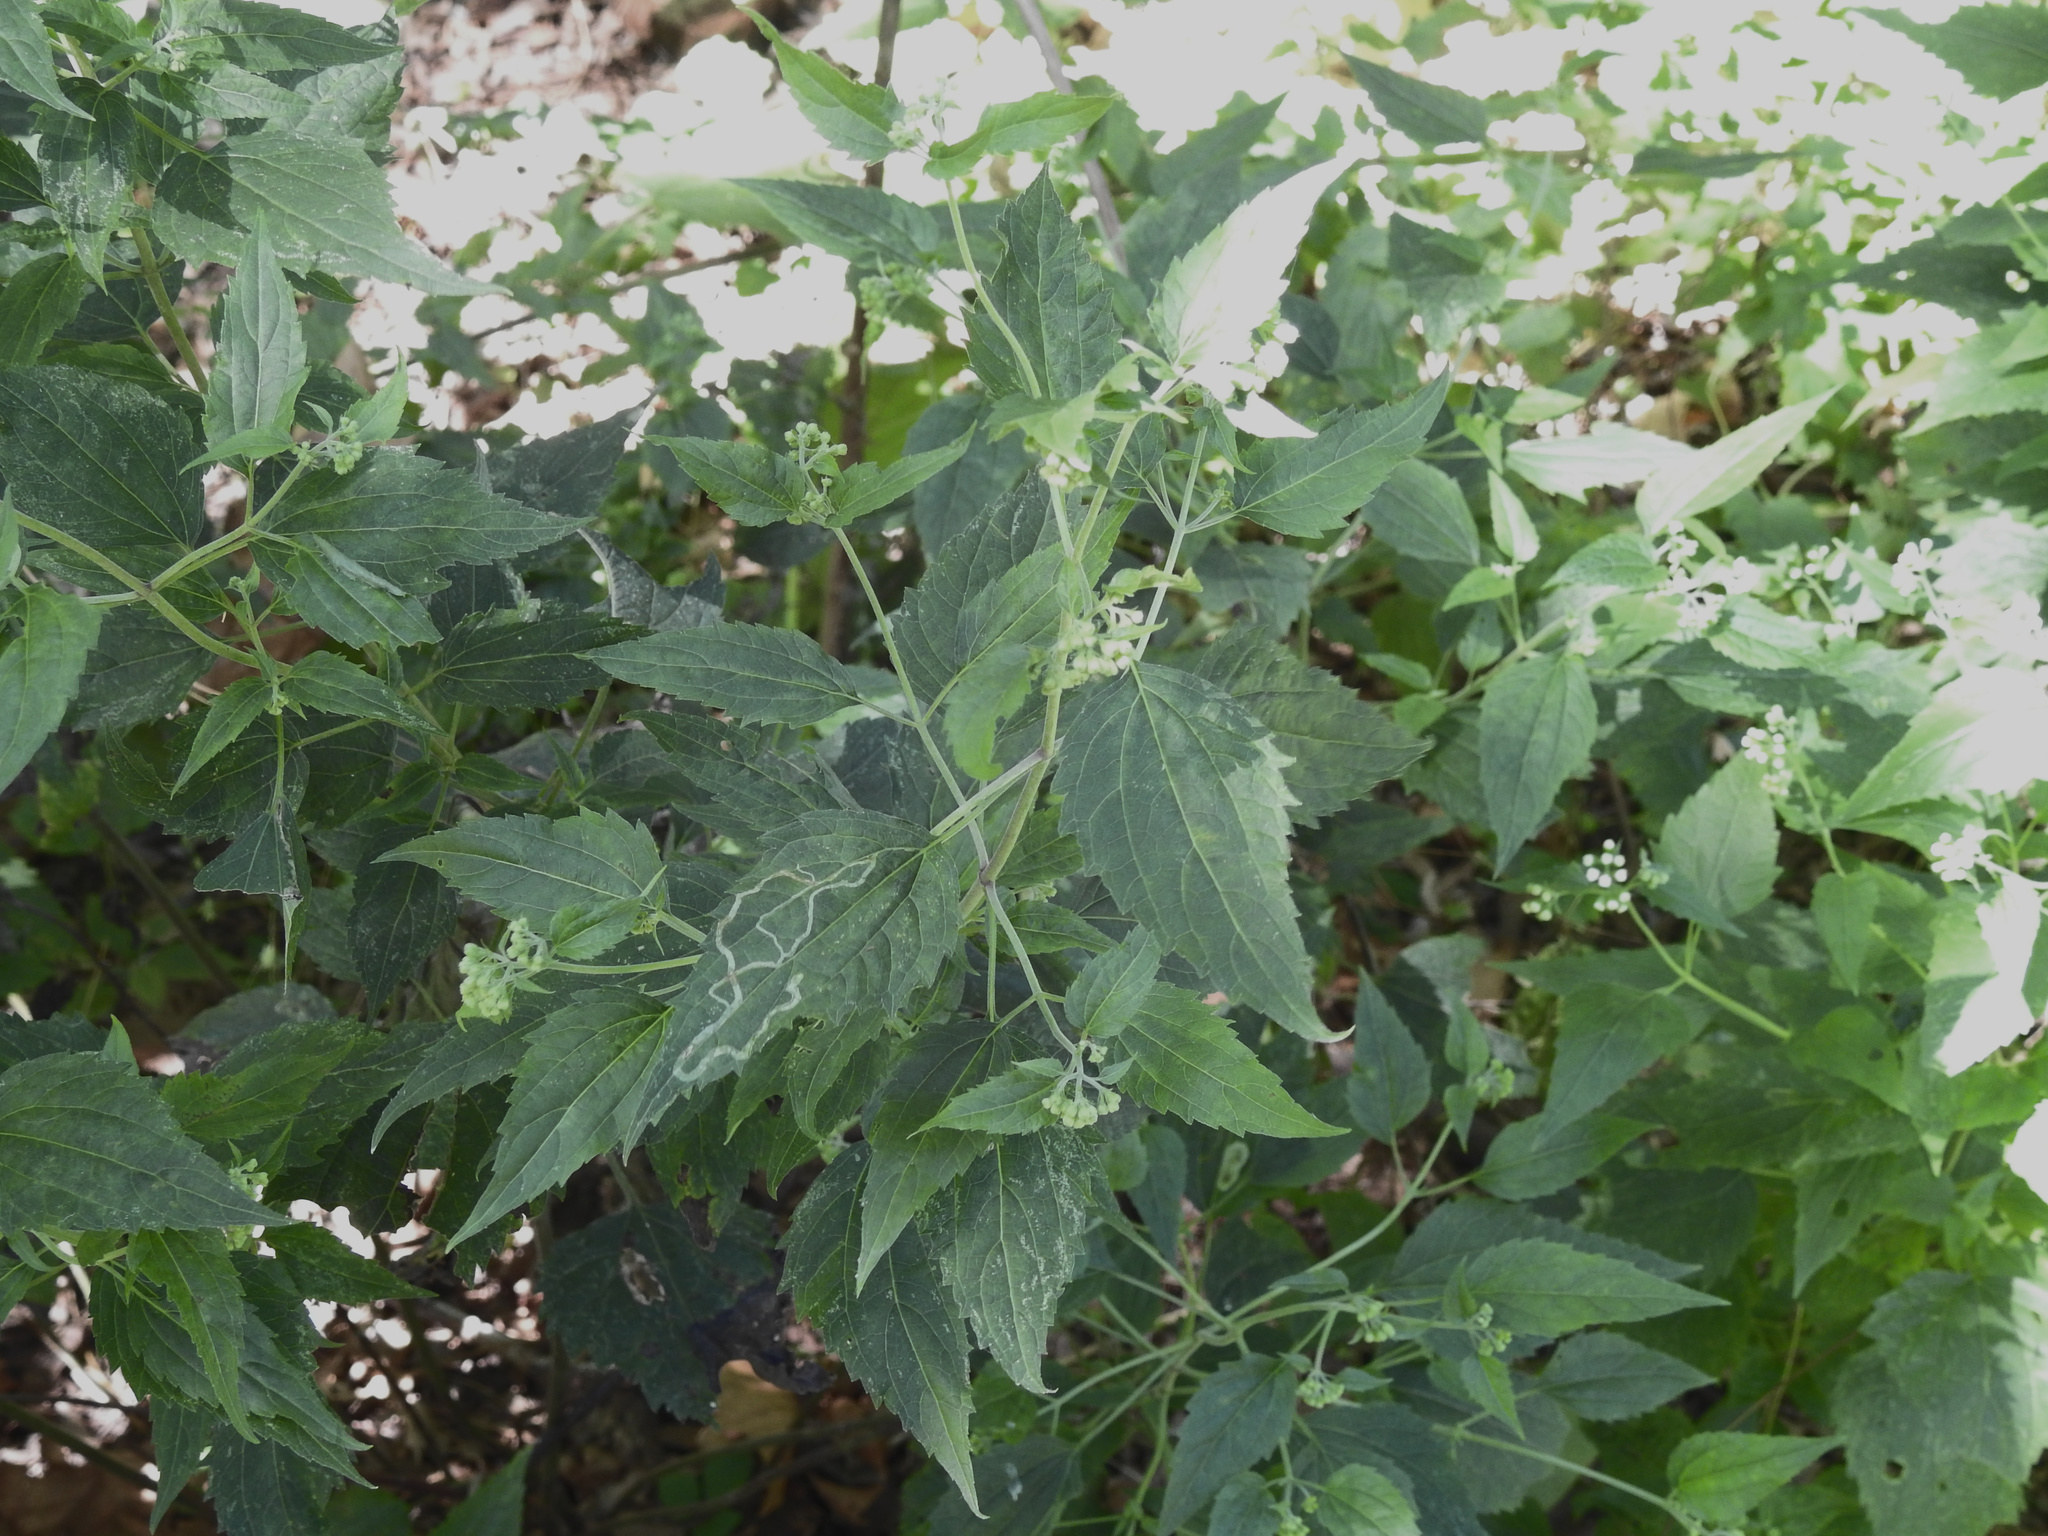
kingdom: Plantae
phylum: Tracheophyta
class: Magnoliopsida
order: Asterales
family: Asteraceae
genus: Ageratina
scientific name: Ageratina altissima
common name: White snakeroot
